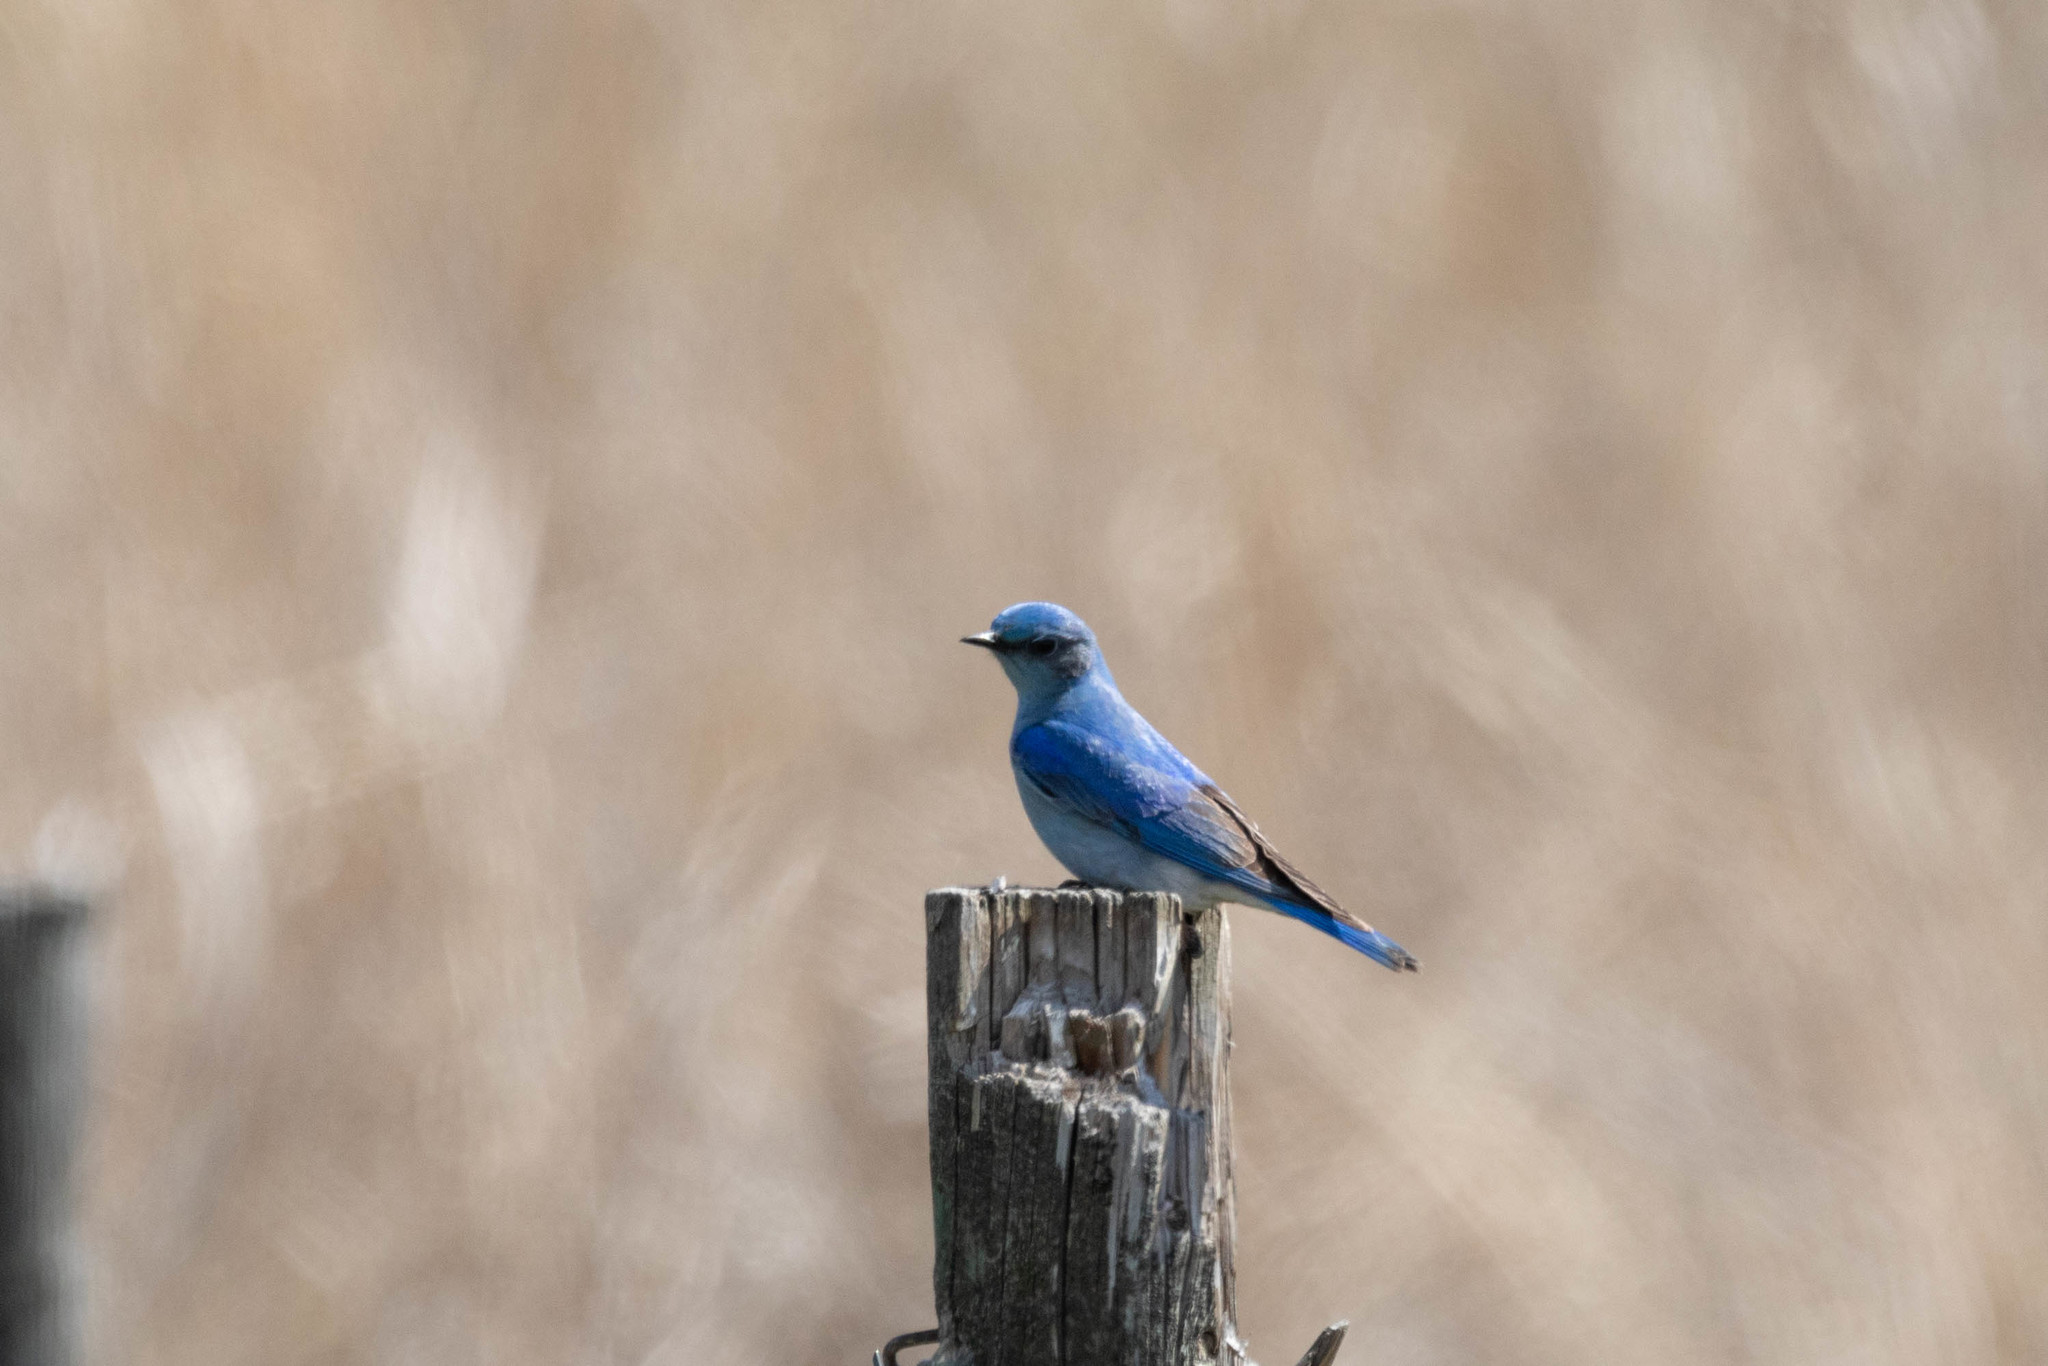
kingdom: Animalia
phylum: Chordata
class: Aves
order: Passeriformes
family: Turdidae
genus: Sialia
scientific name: Sialia currucoides
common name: Mountain bluebird
